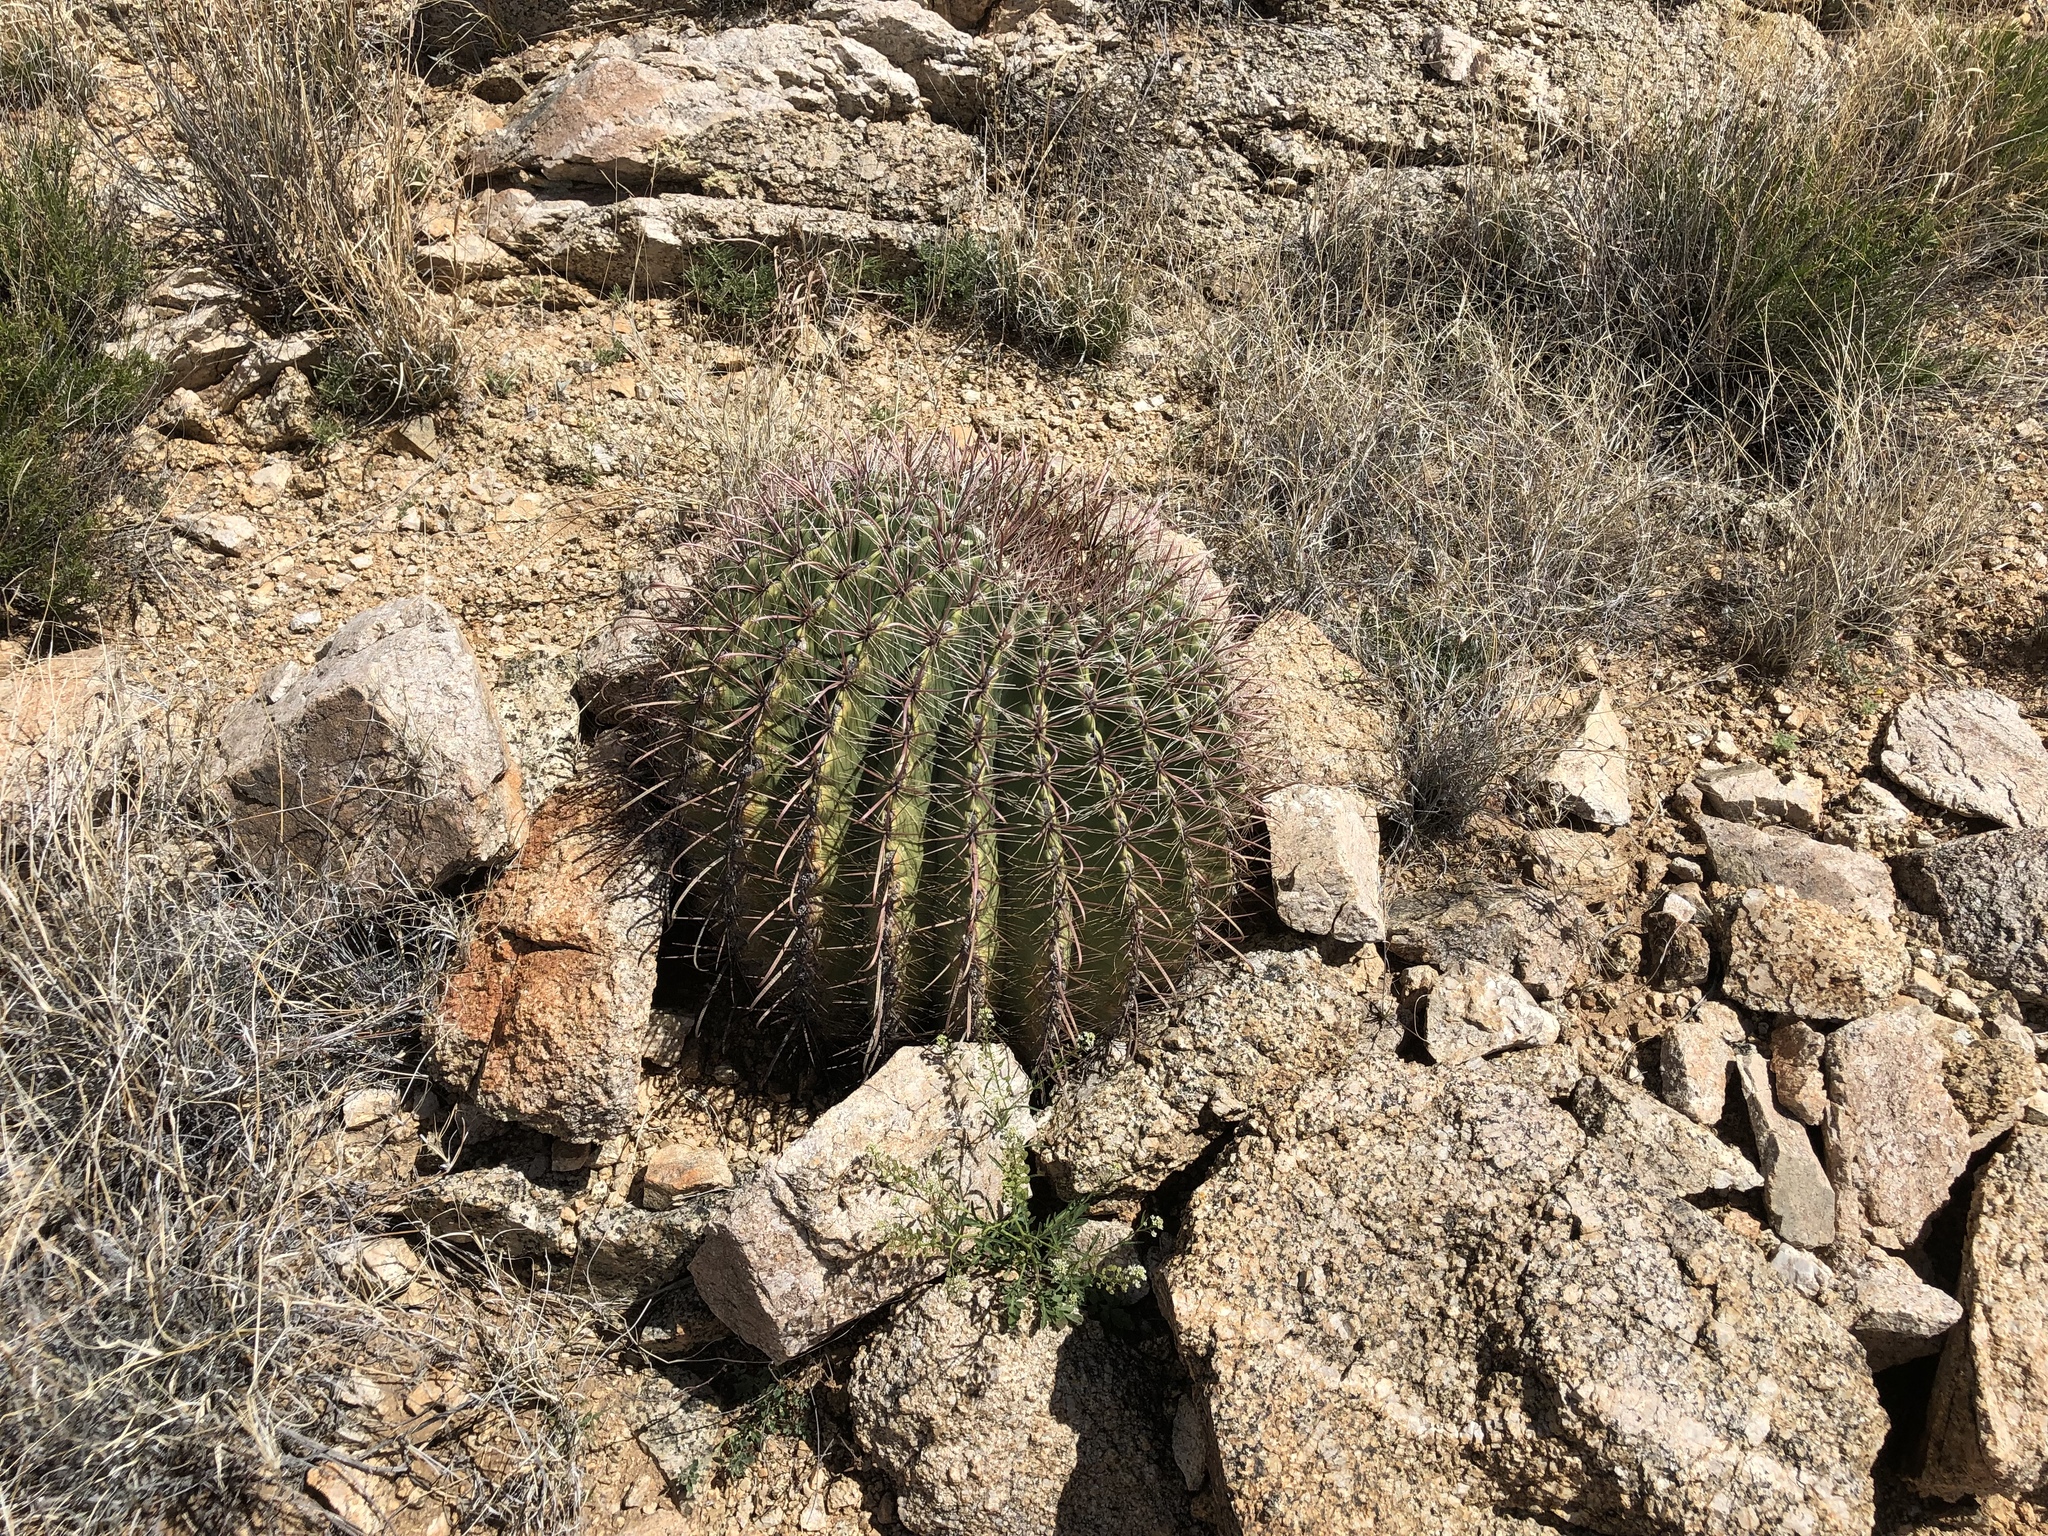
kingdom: Plantae
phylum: Tracheophyta
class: Magnoliopsida
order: Caryophyllales
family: Cactaceae
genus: Ferocactus
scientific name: Ferocactus wislizeni
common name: Candy barrel cactus
